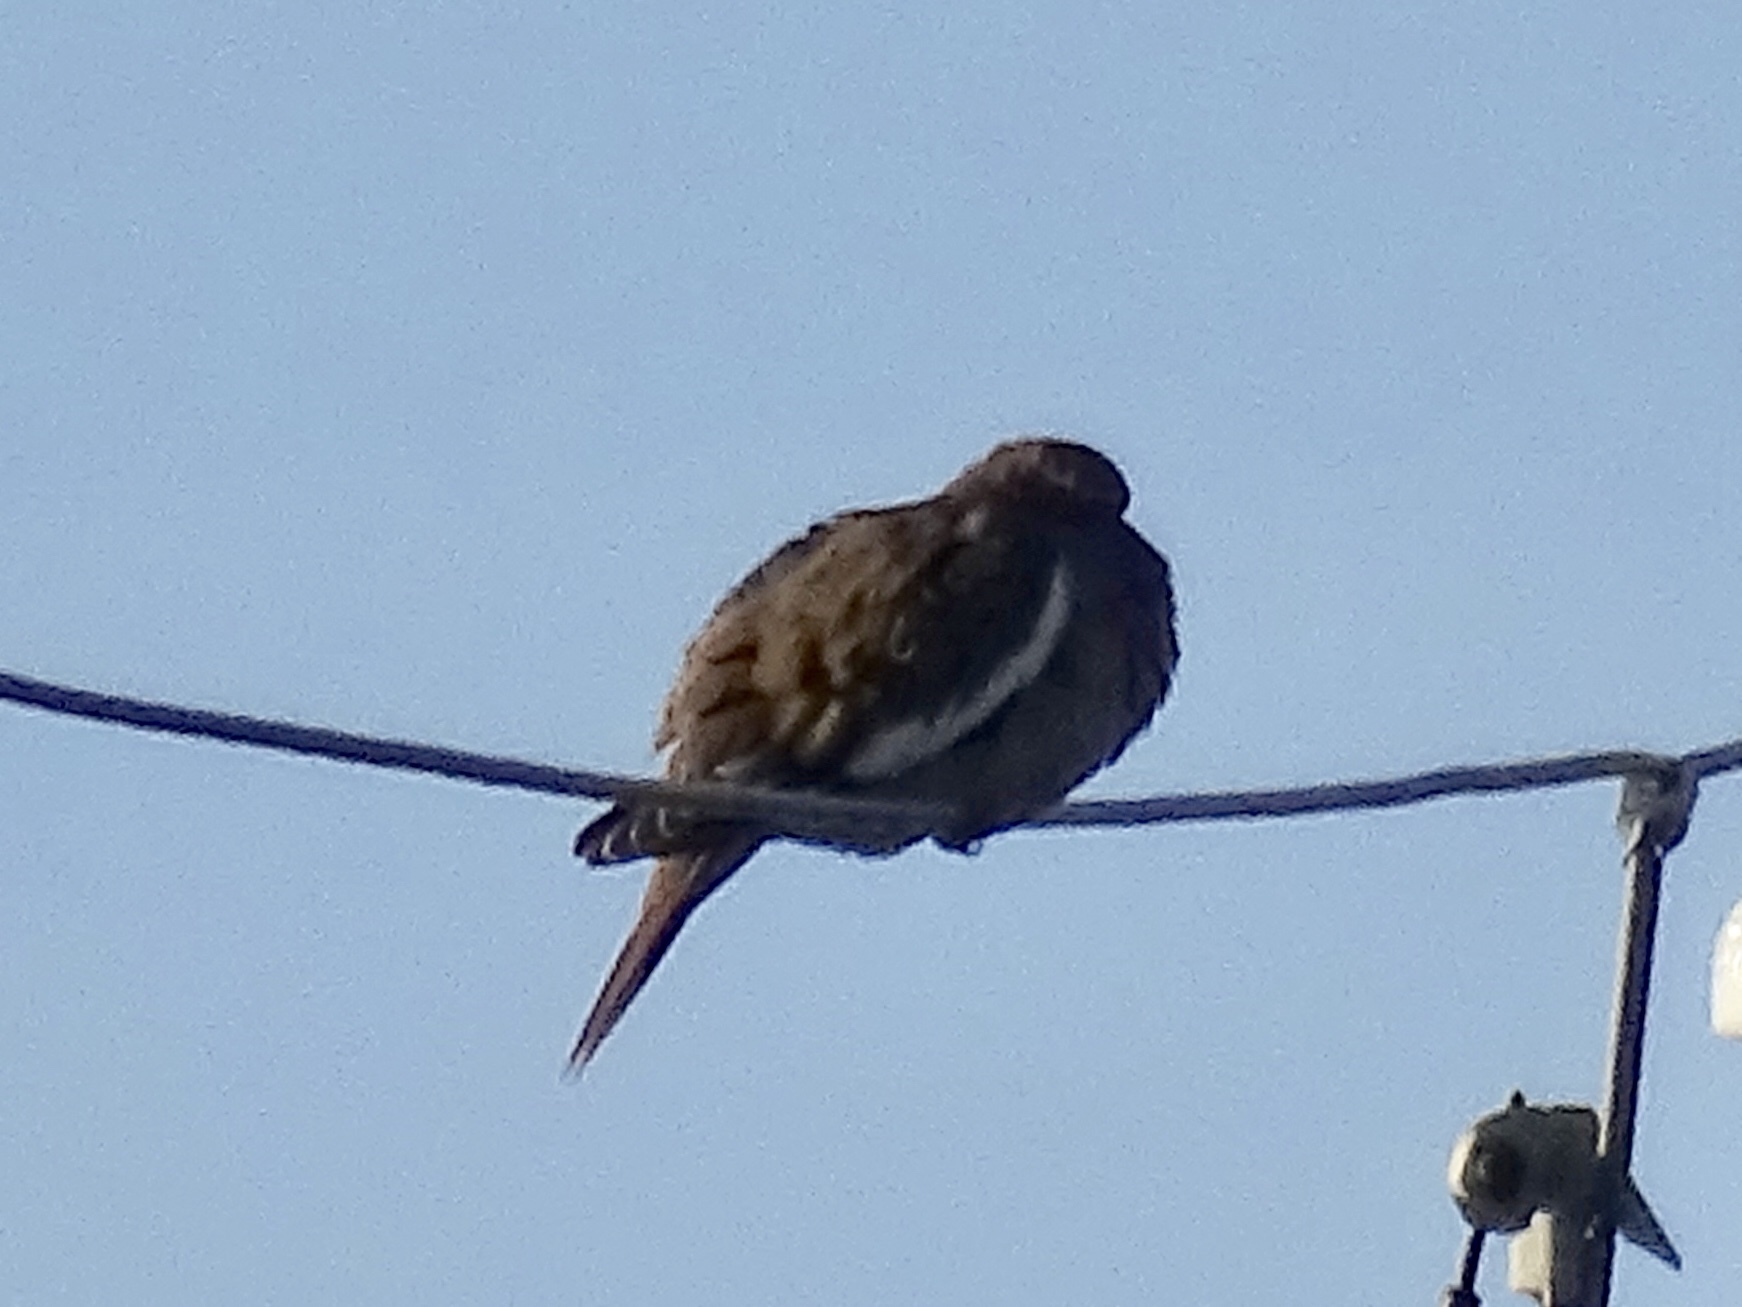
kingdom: Animalia
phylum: Chordata
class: Aves
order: Columbiformes
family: Columbidae
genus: Zenaida
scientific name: Zenaida asiatica
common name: White-winged dove
